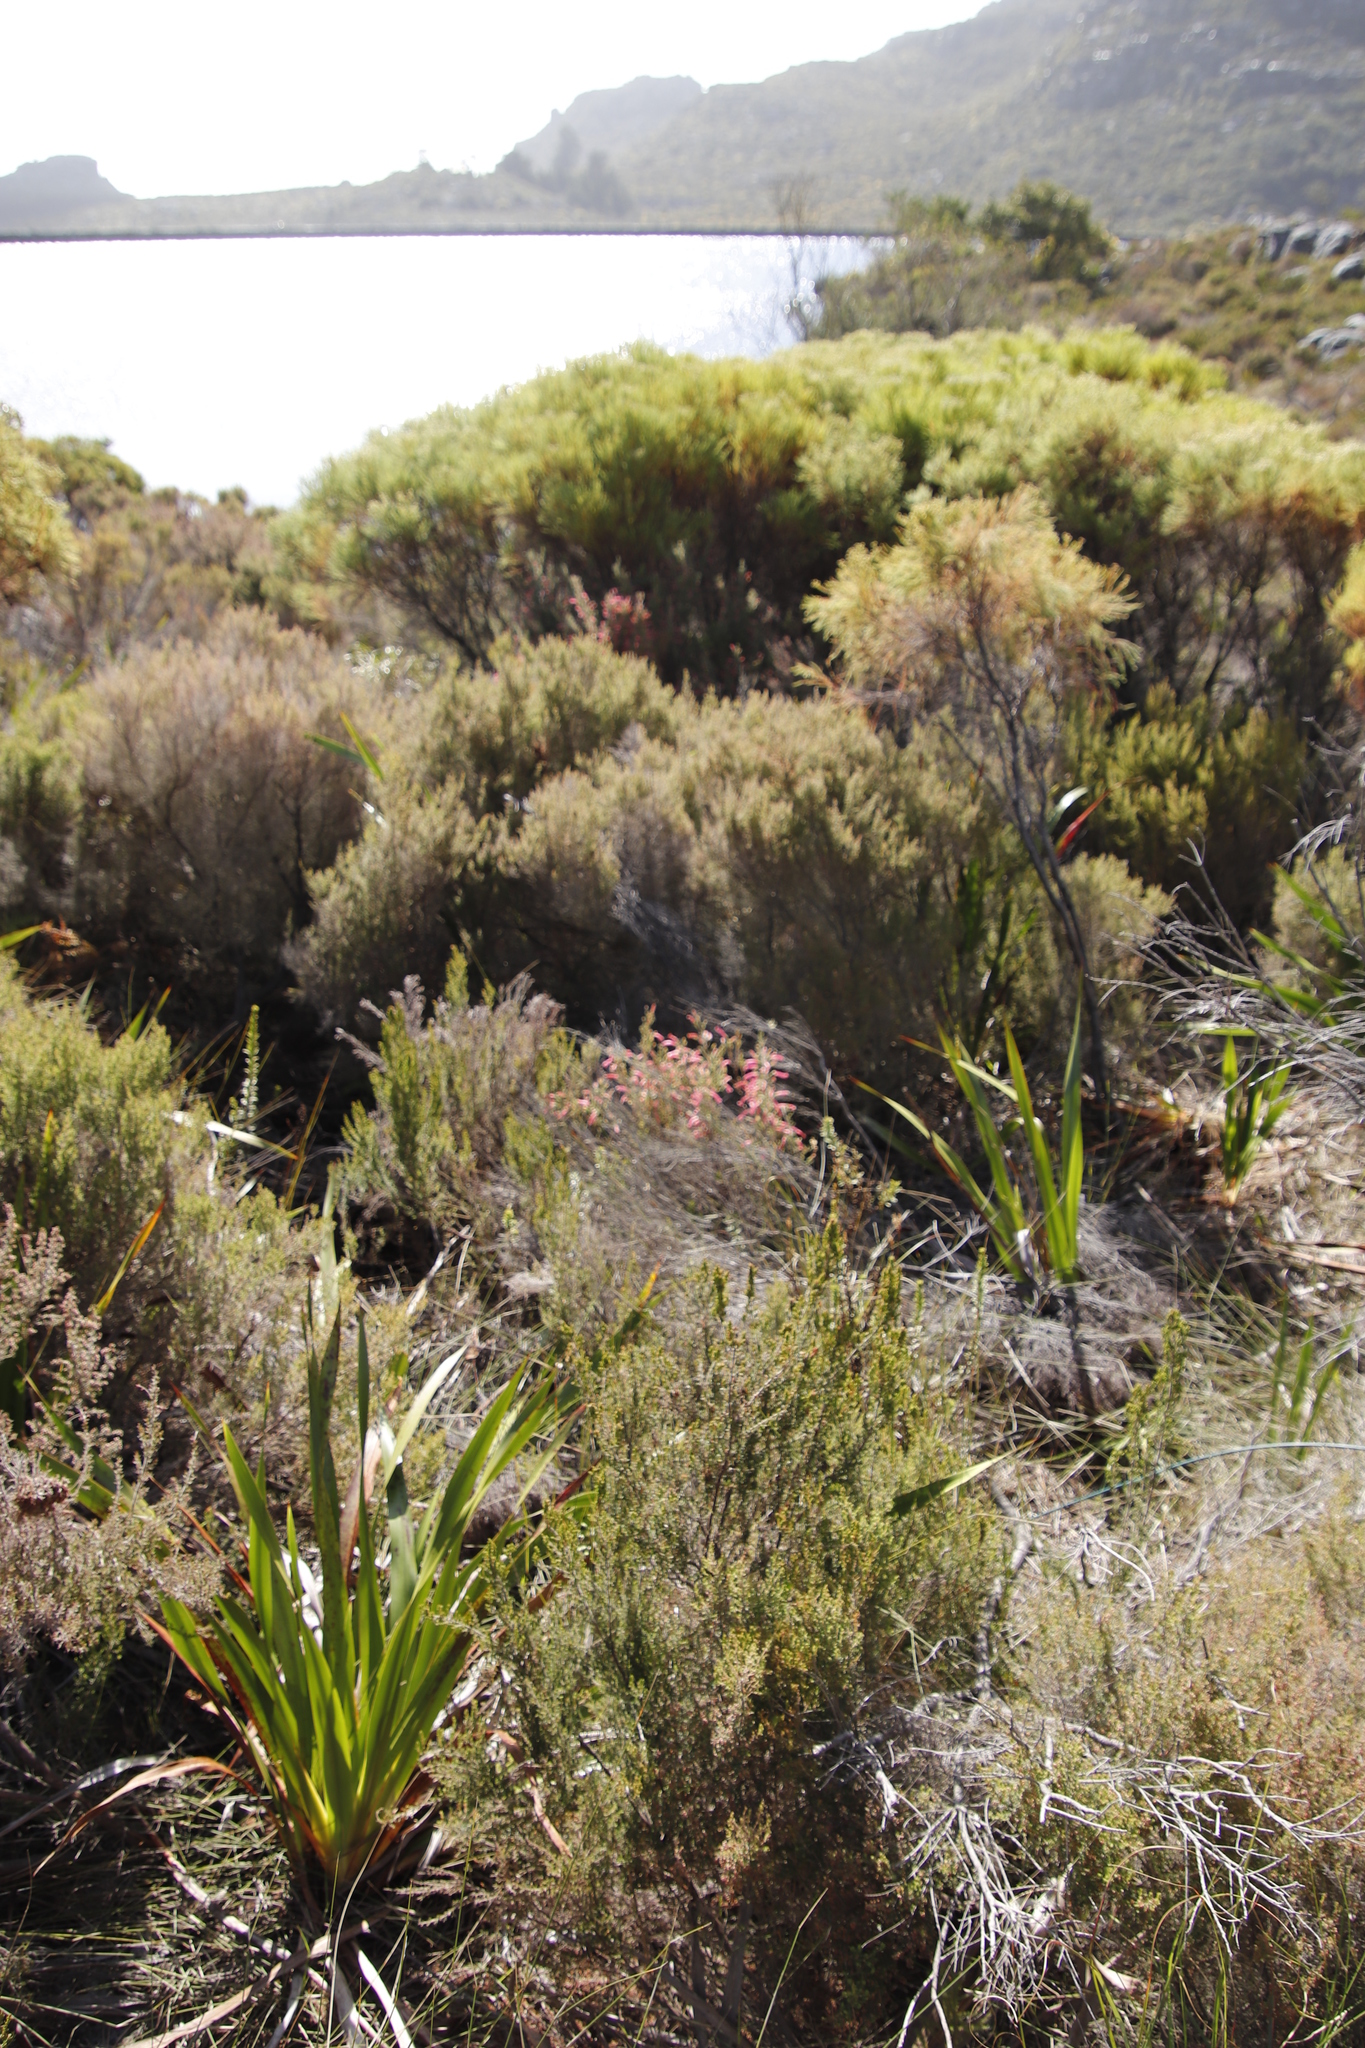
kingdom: Plantae
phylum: Tracheophyta
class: Magnoliopsida
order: Ericales
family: Ericaceae
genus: Erica
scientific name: Erica curviflora
